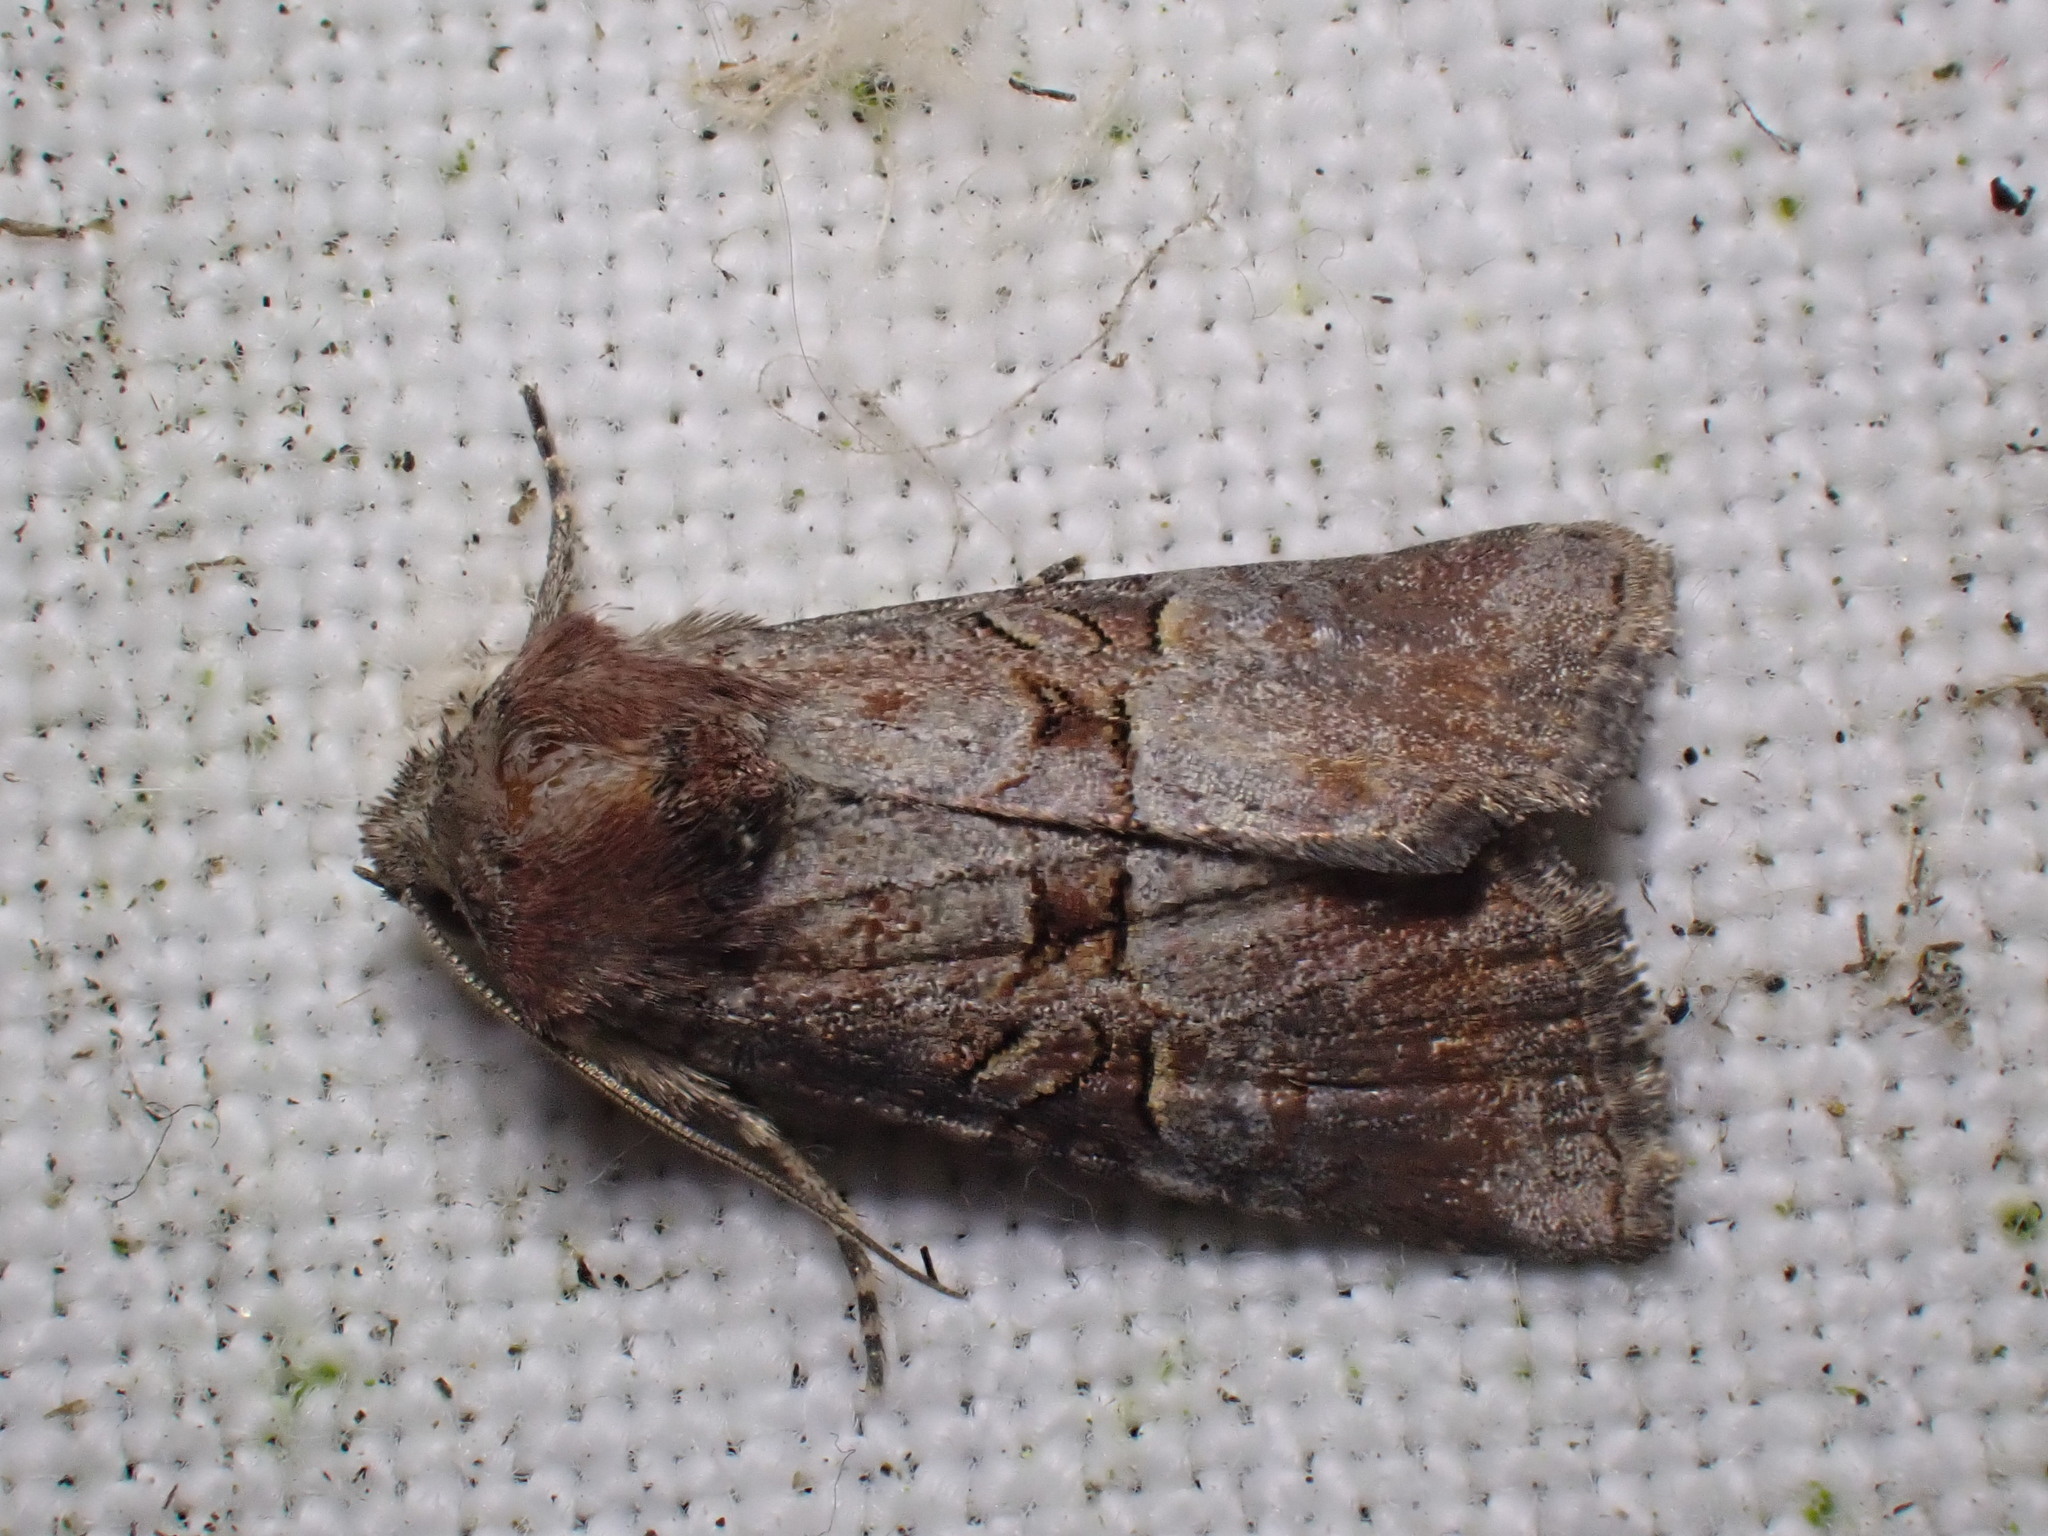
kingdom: Animalia
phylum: Arthropoda
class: Insecta
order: Lepidoptera
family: Noctuidae
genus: Litoligia
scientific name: Litoligia literosa
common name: Rosy minor
